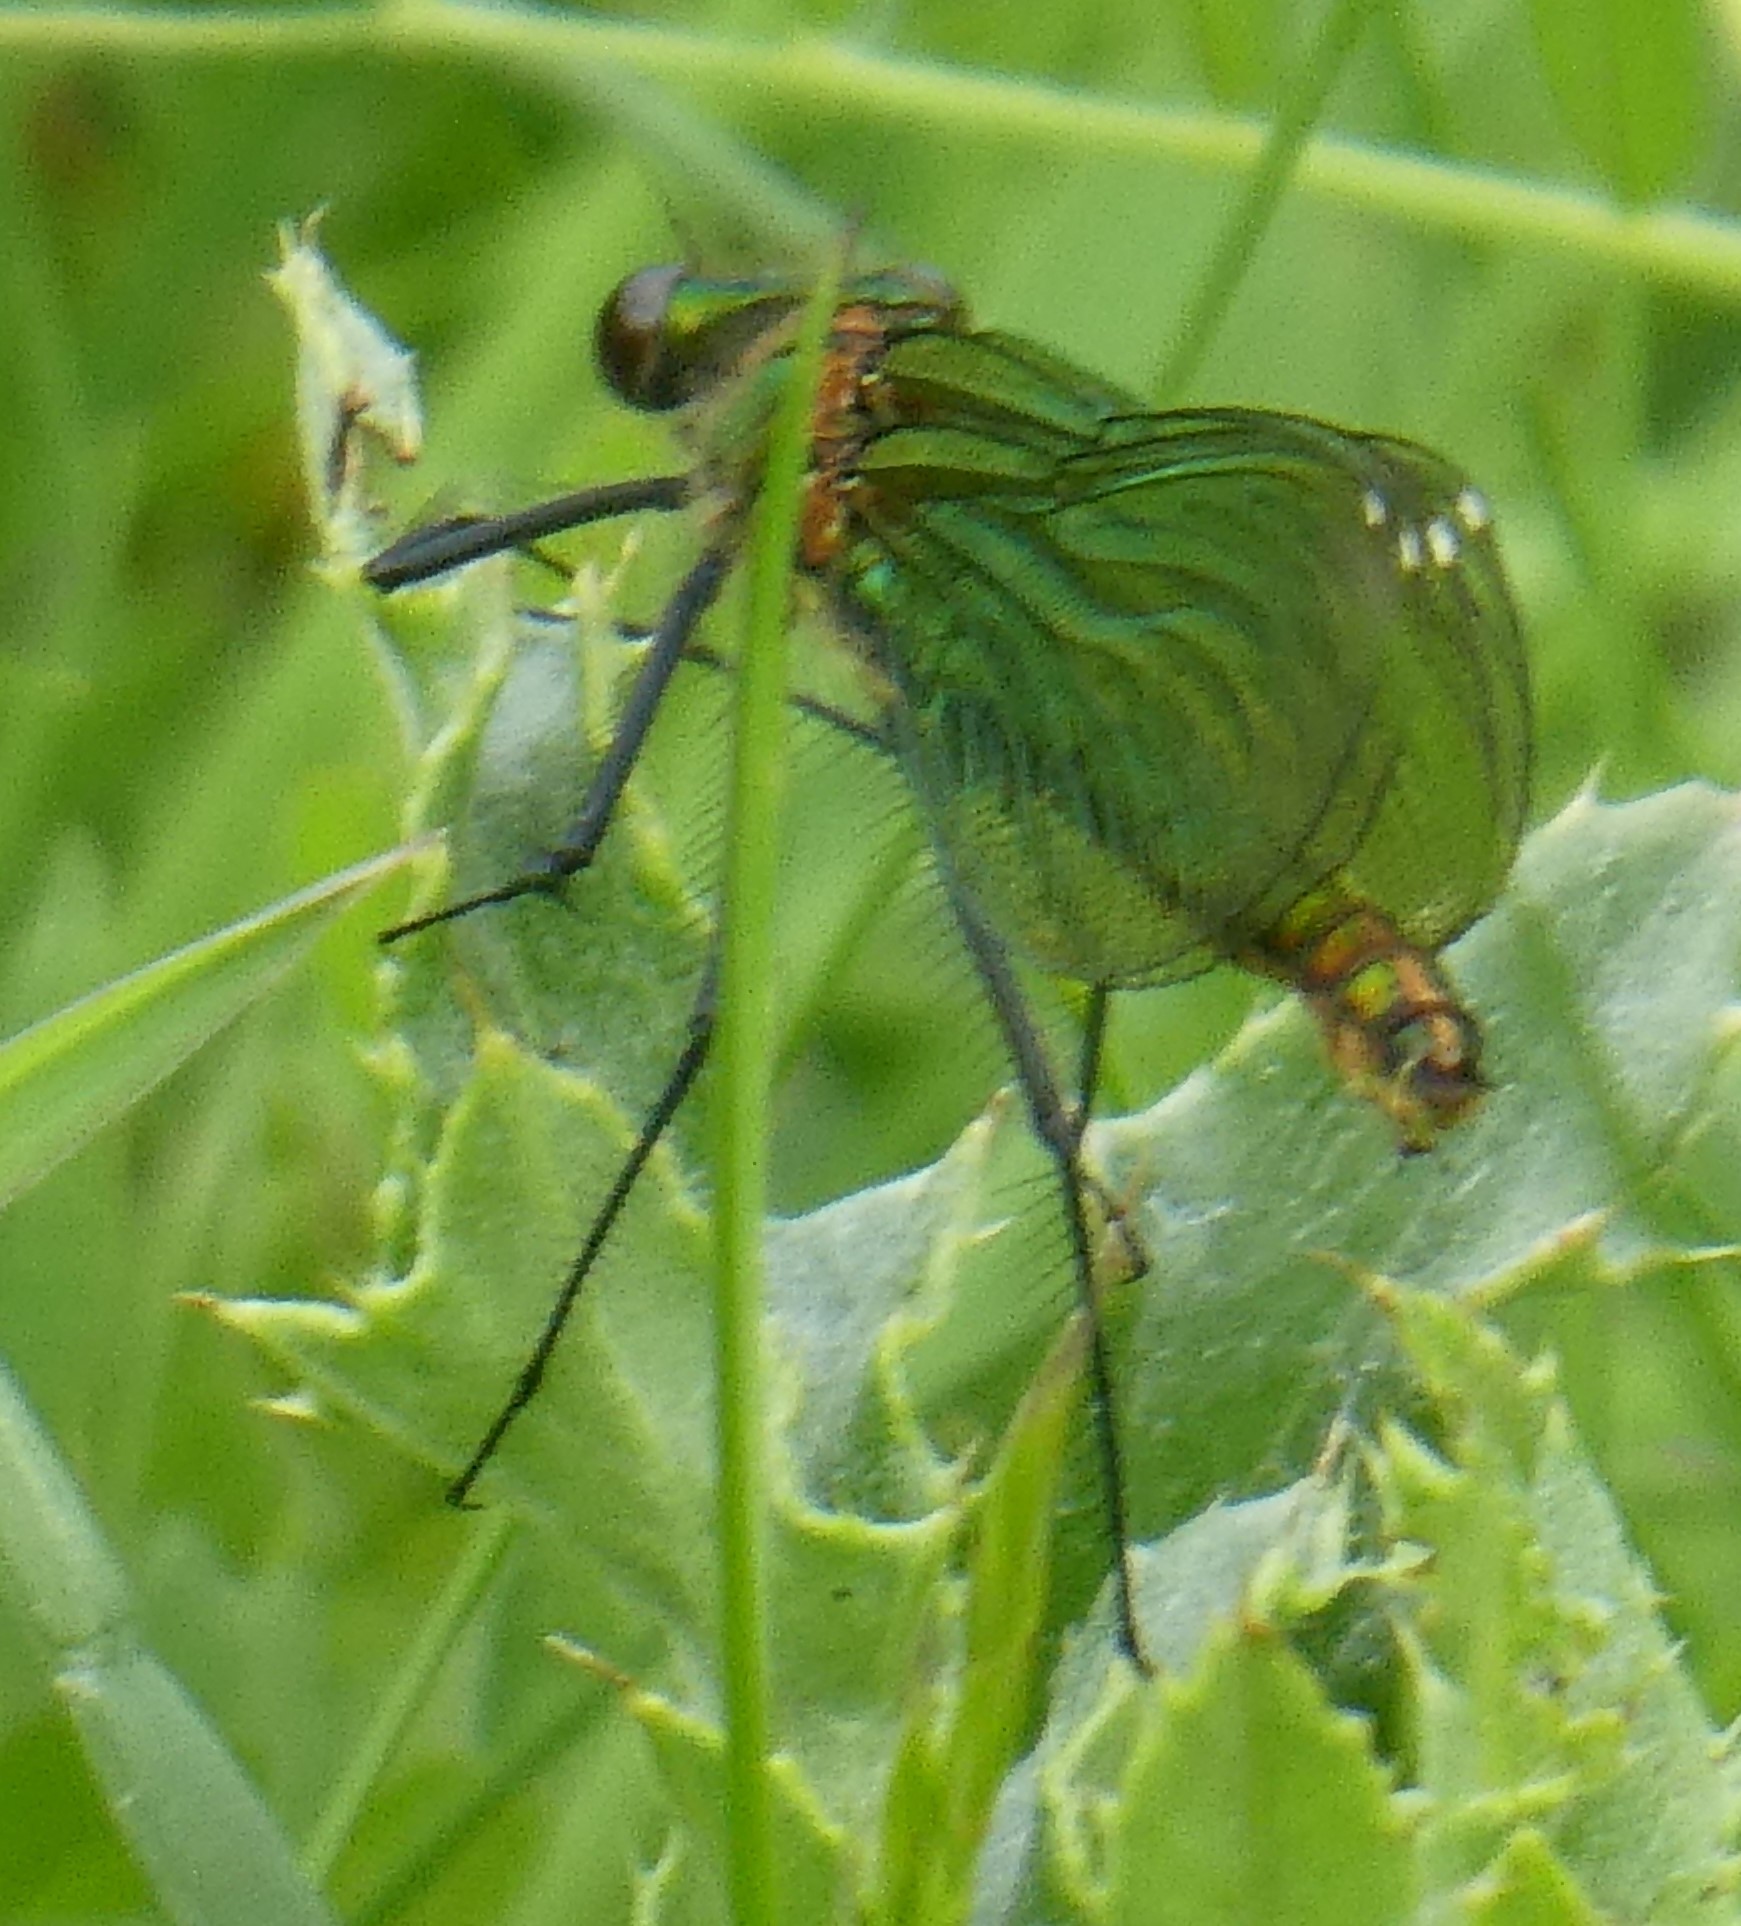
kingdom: Animalia
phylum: Arthropoda
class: Insecta
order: Odonata
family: Calopterygidae
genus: Calopteryx
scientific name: Calopteryx splendens
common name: Banded demoiselle
